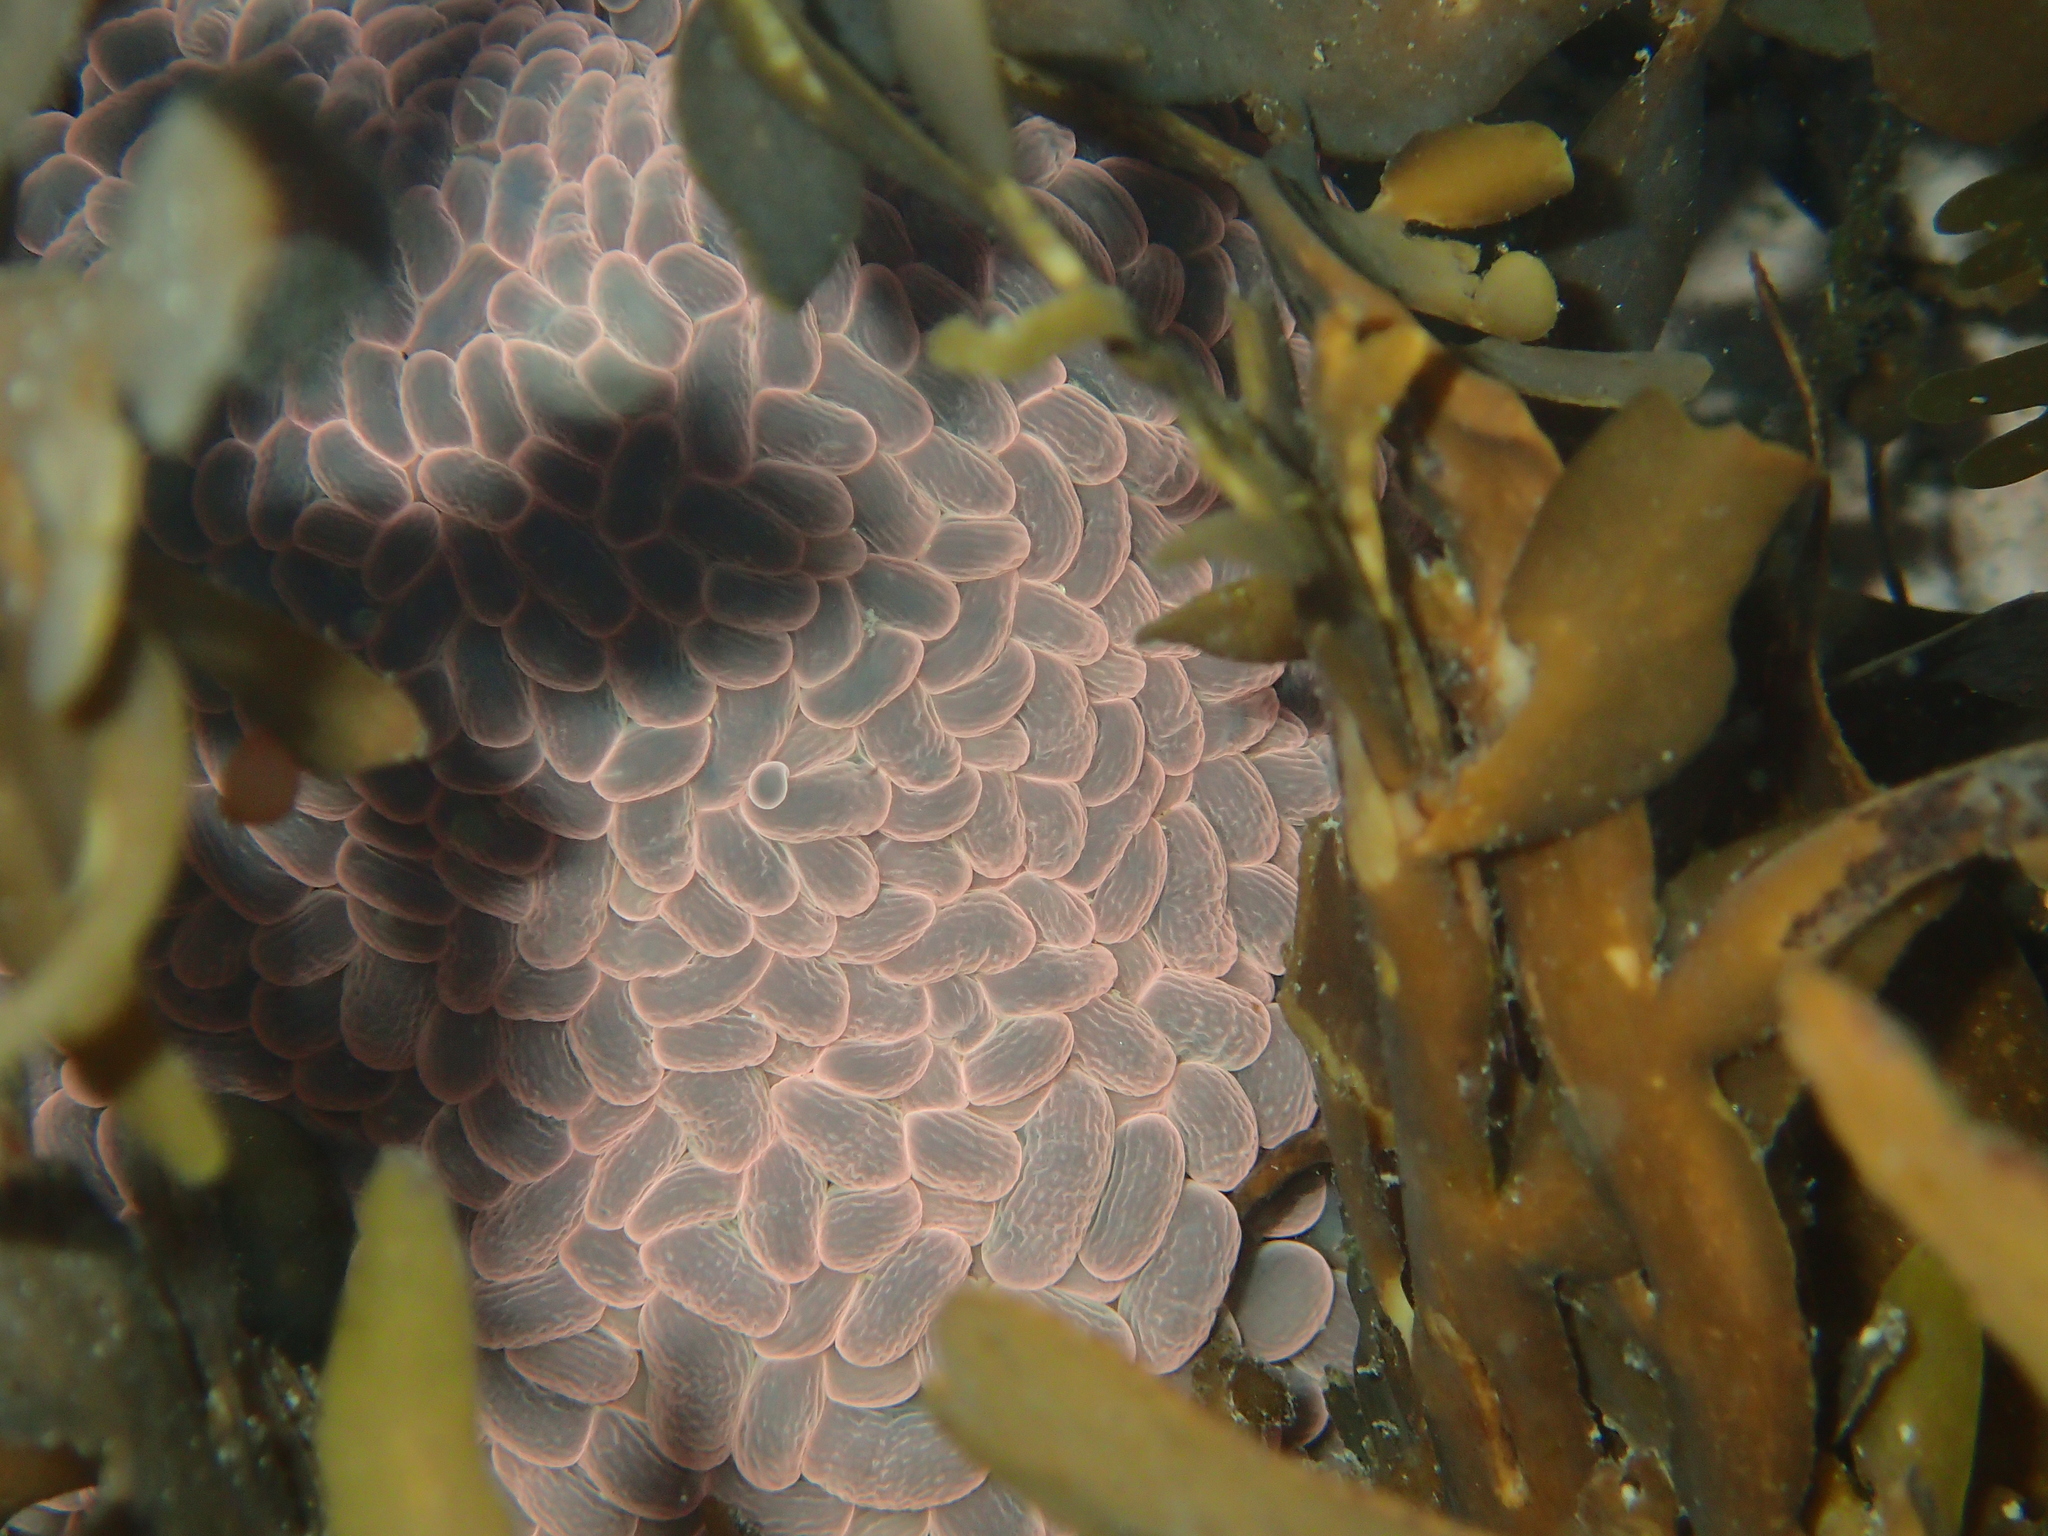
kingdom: Animalia
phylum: Cnidaria
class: Anthozoa
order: Actiniaria
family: Actiniidae
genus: Phlyctenactis
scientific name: Phlyctenactis tuberculosa
